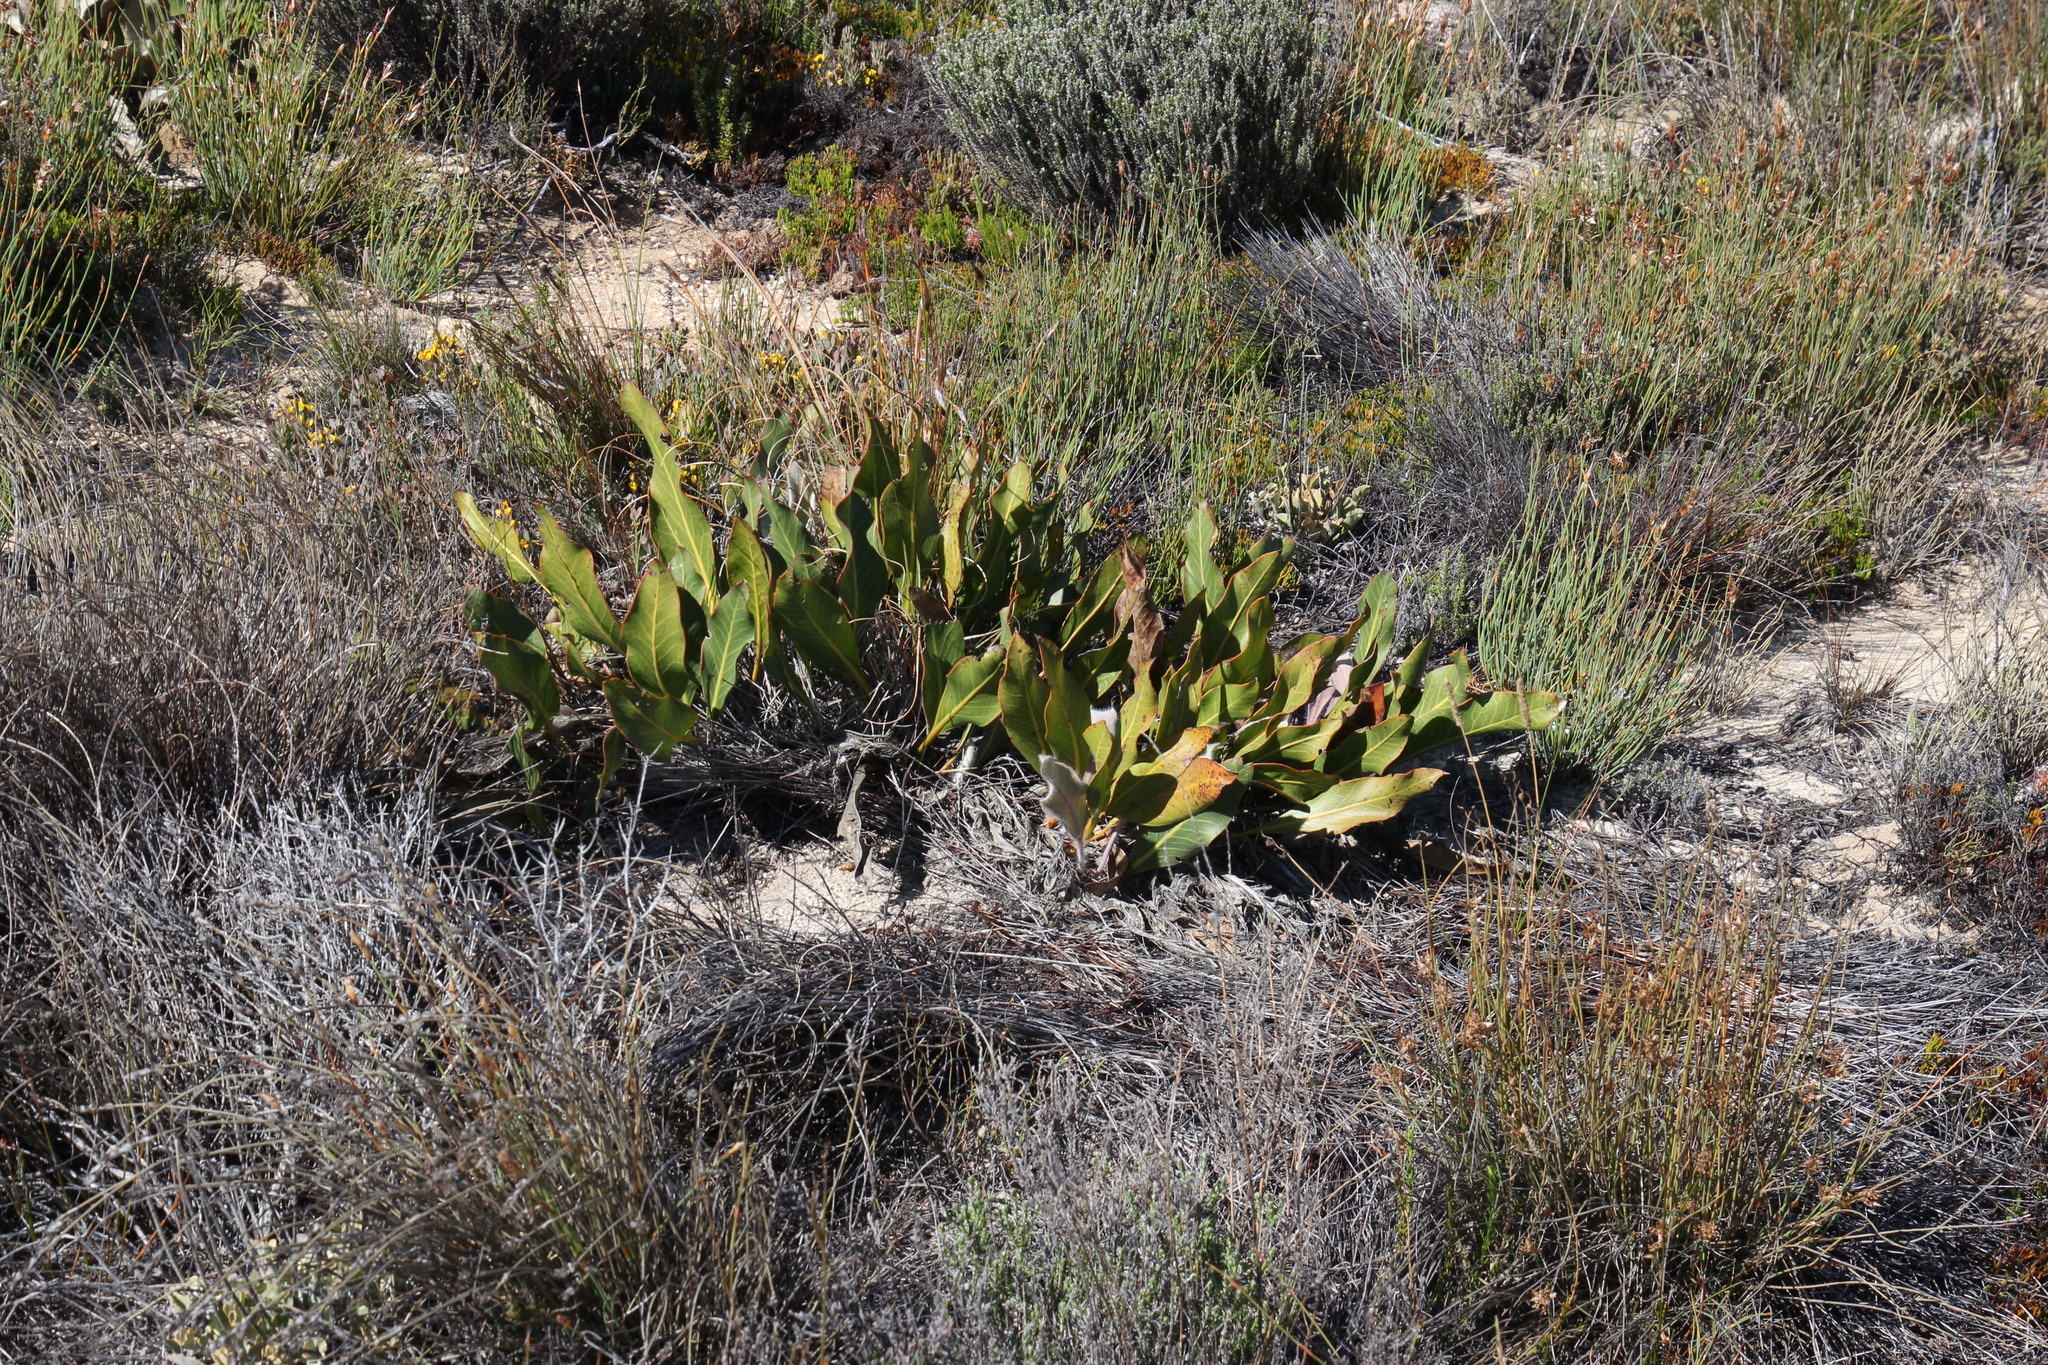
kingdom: Plantae
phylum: Tracheophyta
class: Magnoliopsida
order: Proteales
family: Proteaceae
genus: Protea
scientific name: Protea scolopendriifolia
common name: Harts-tongue-fern sugarbush
